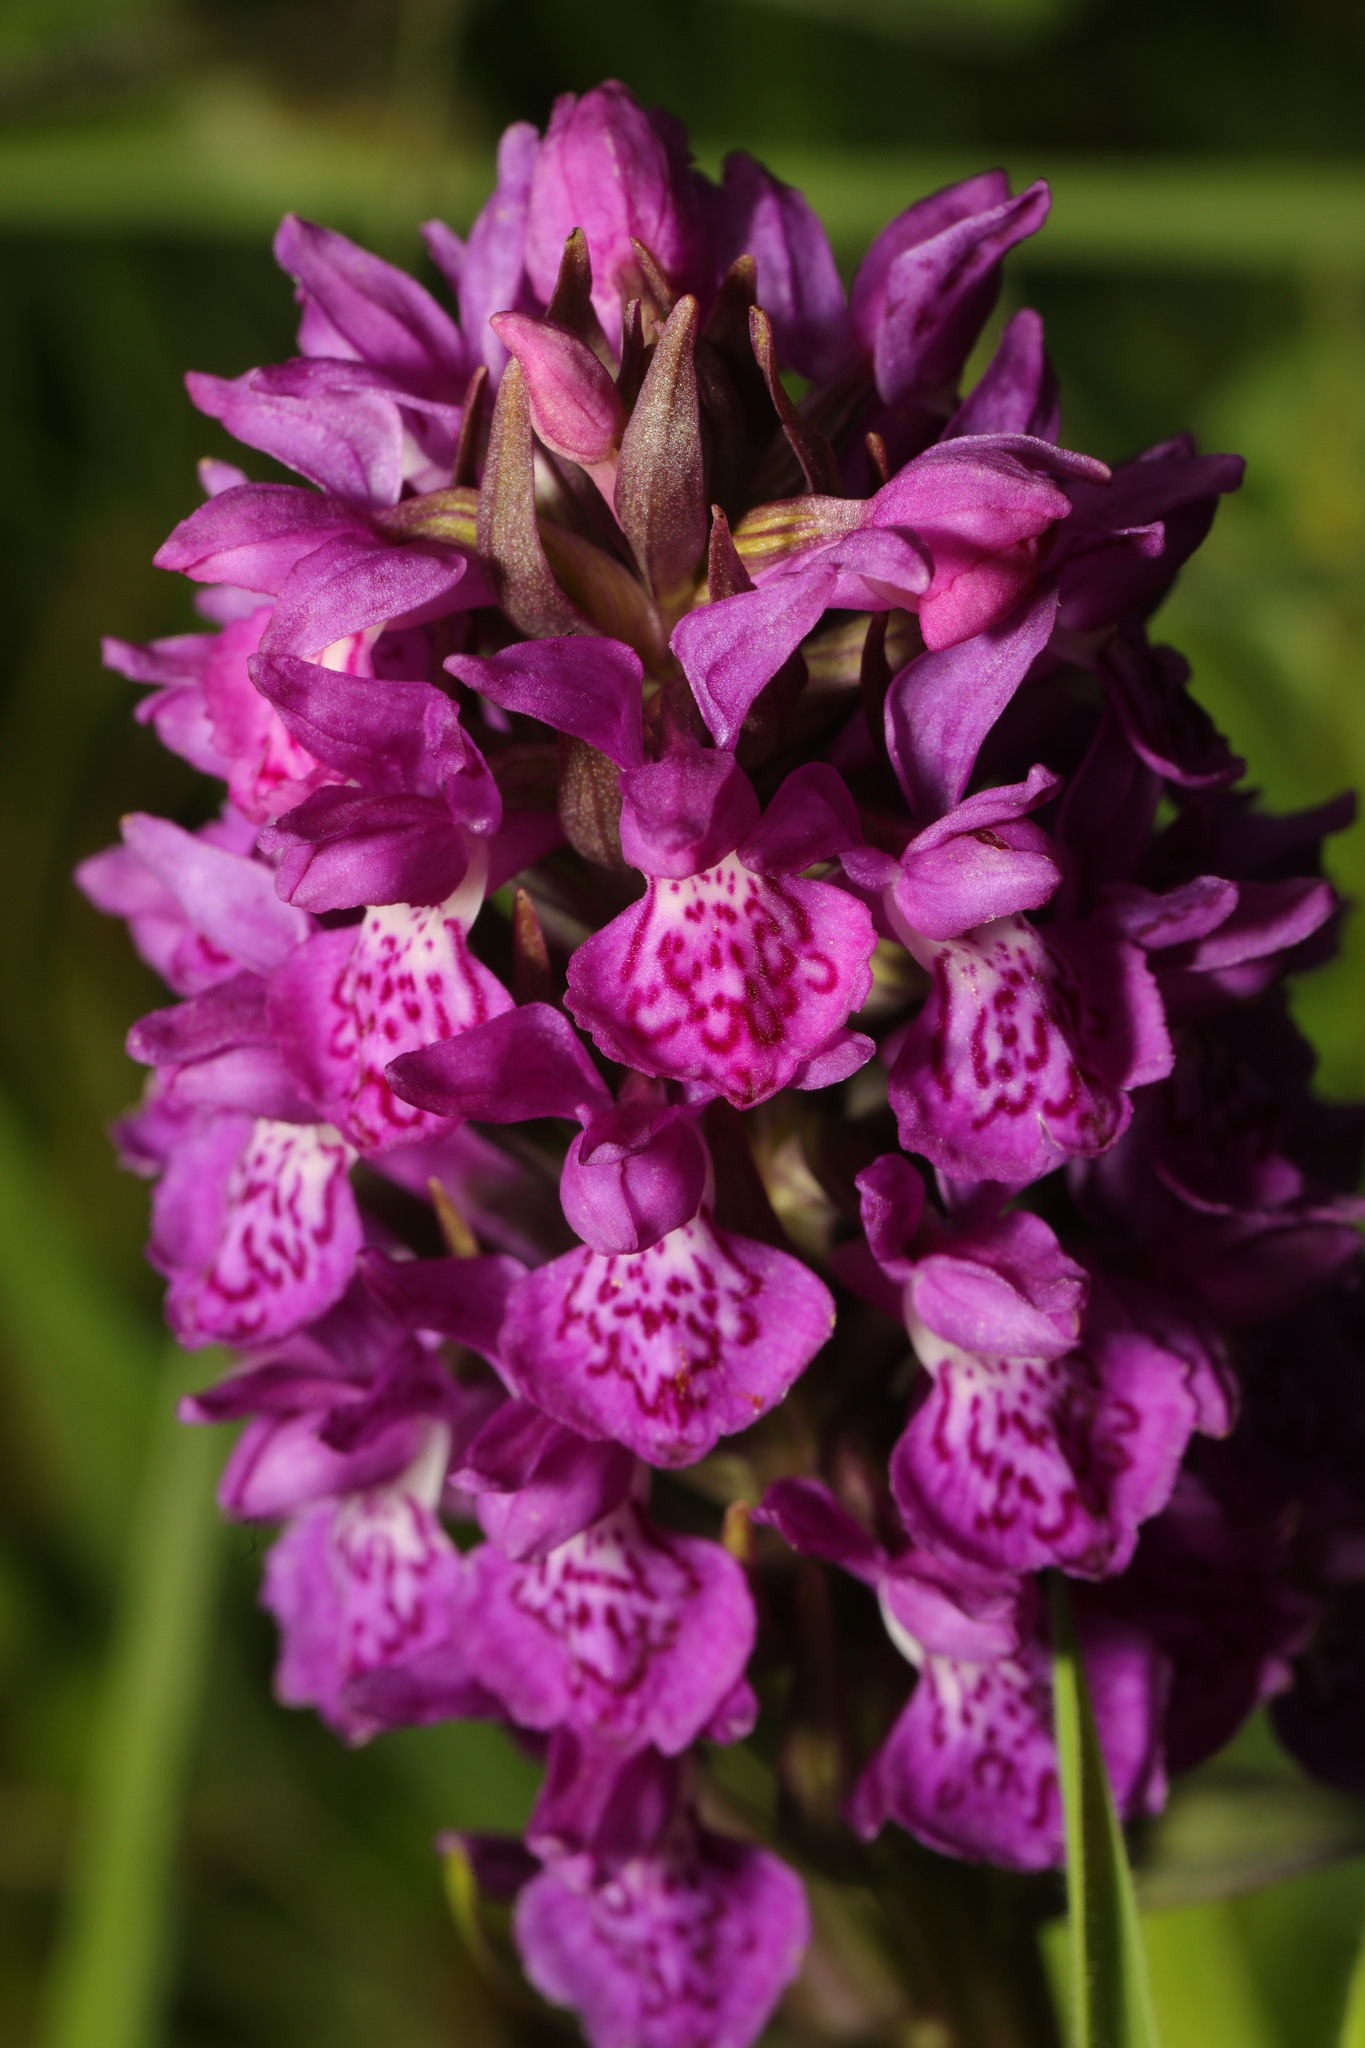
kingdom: Plantae
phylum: Tracheophyta
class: Liliopsida
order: Asparagales
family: Orchidaceae
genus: Dactylorhiza
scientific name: Dactylorhiza majalis
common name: Marsh orchid
